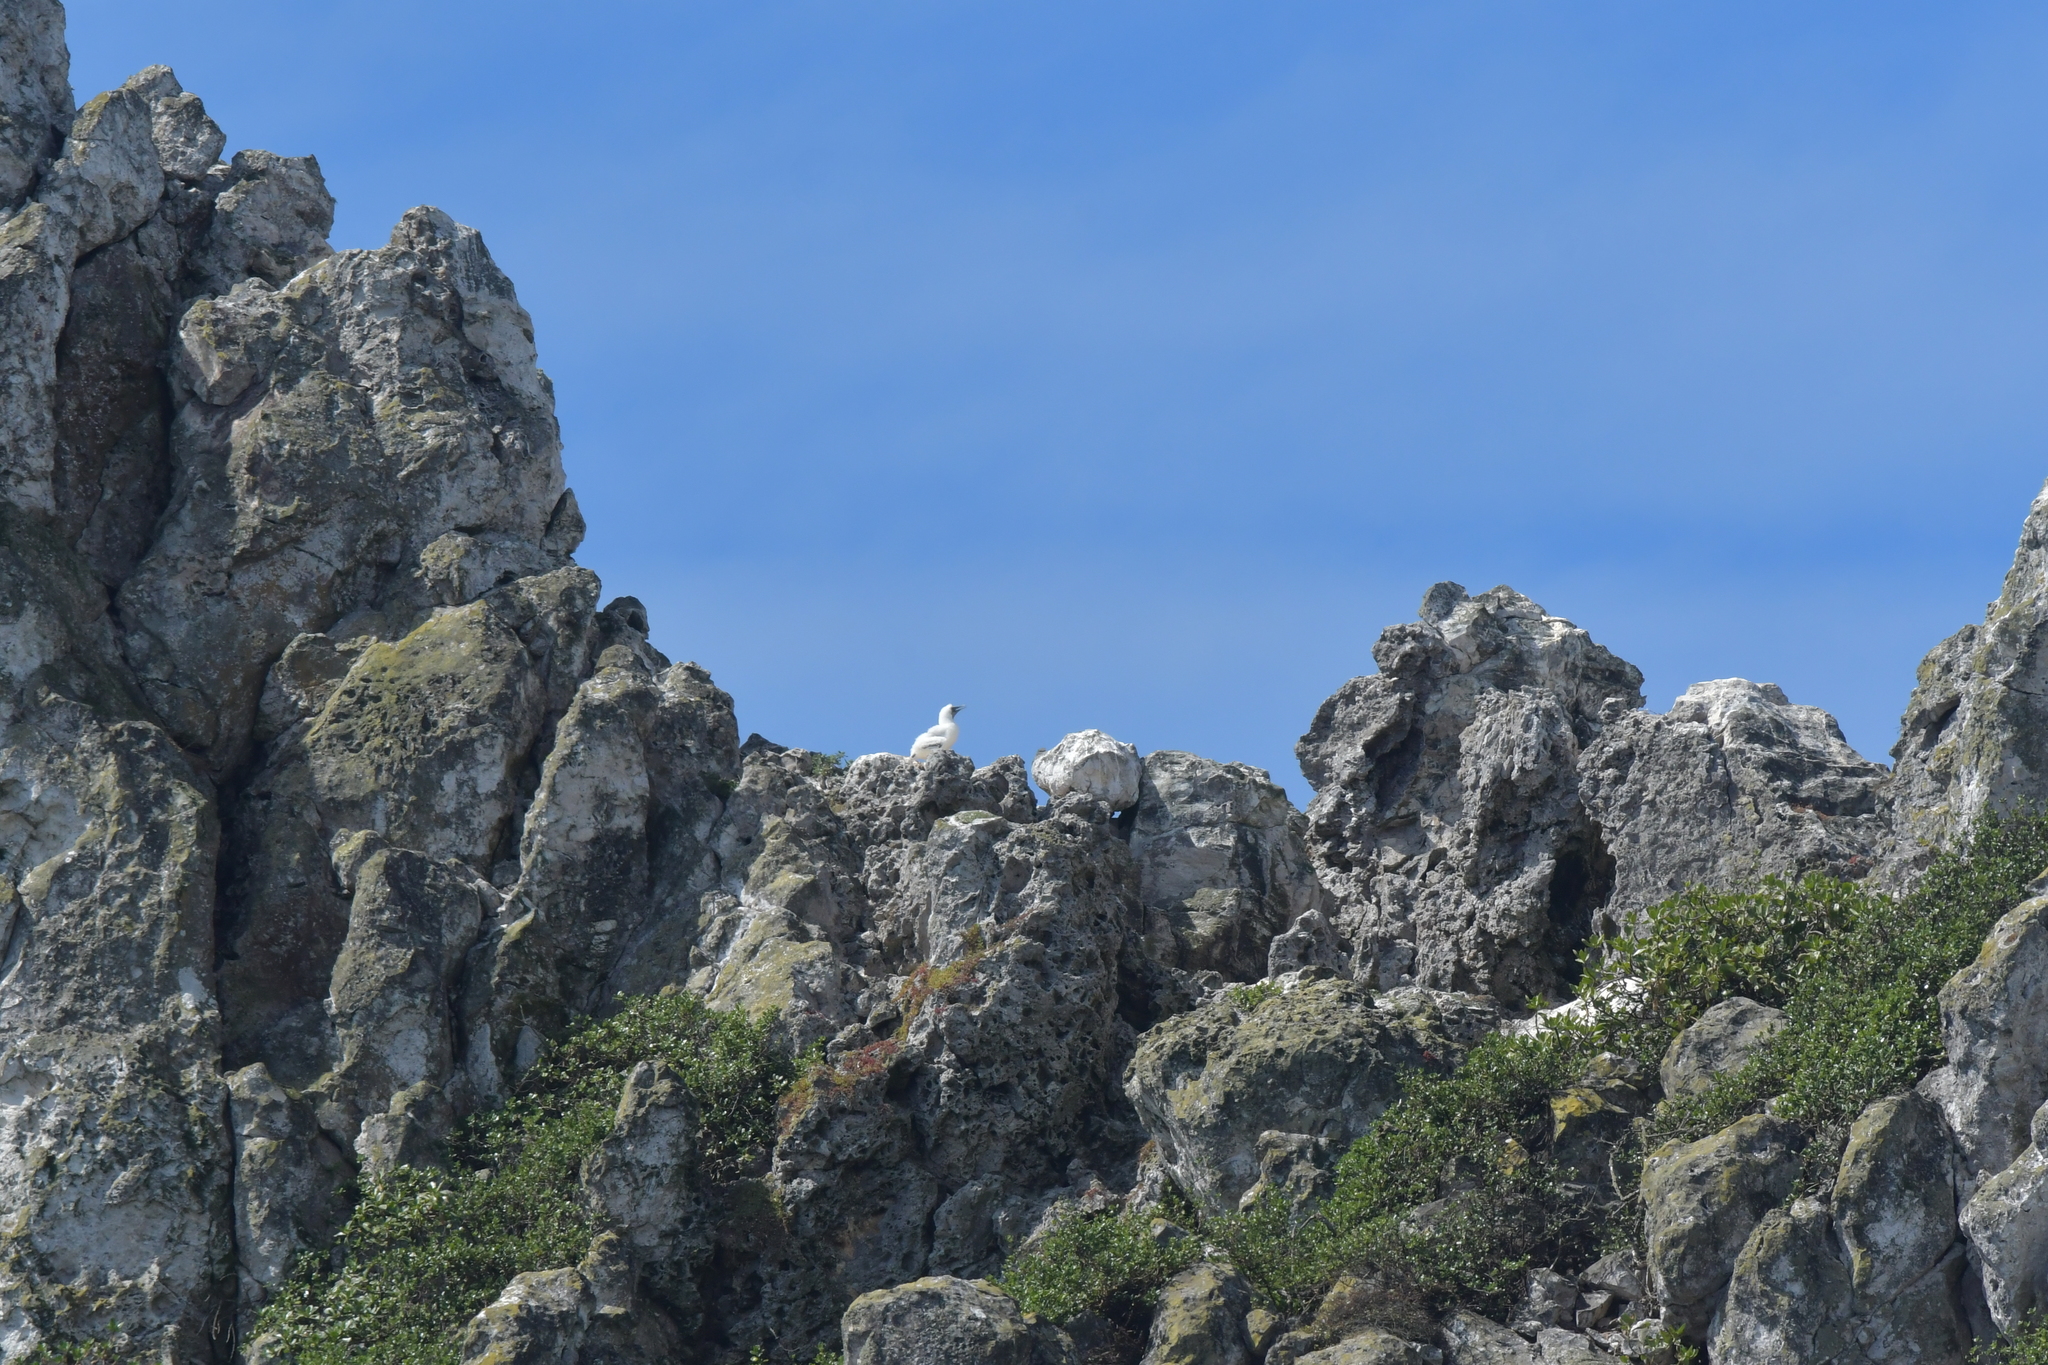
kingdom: Animalia
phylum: Chordata
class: Aves
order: Suliformes
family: Sulidae
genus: Morus
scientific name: Morus serrator
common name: Australasian gannet
